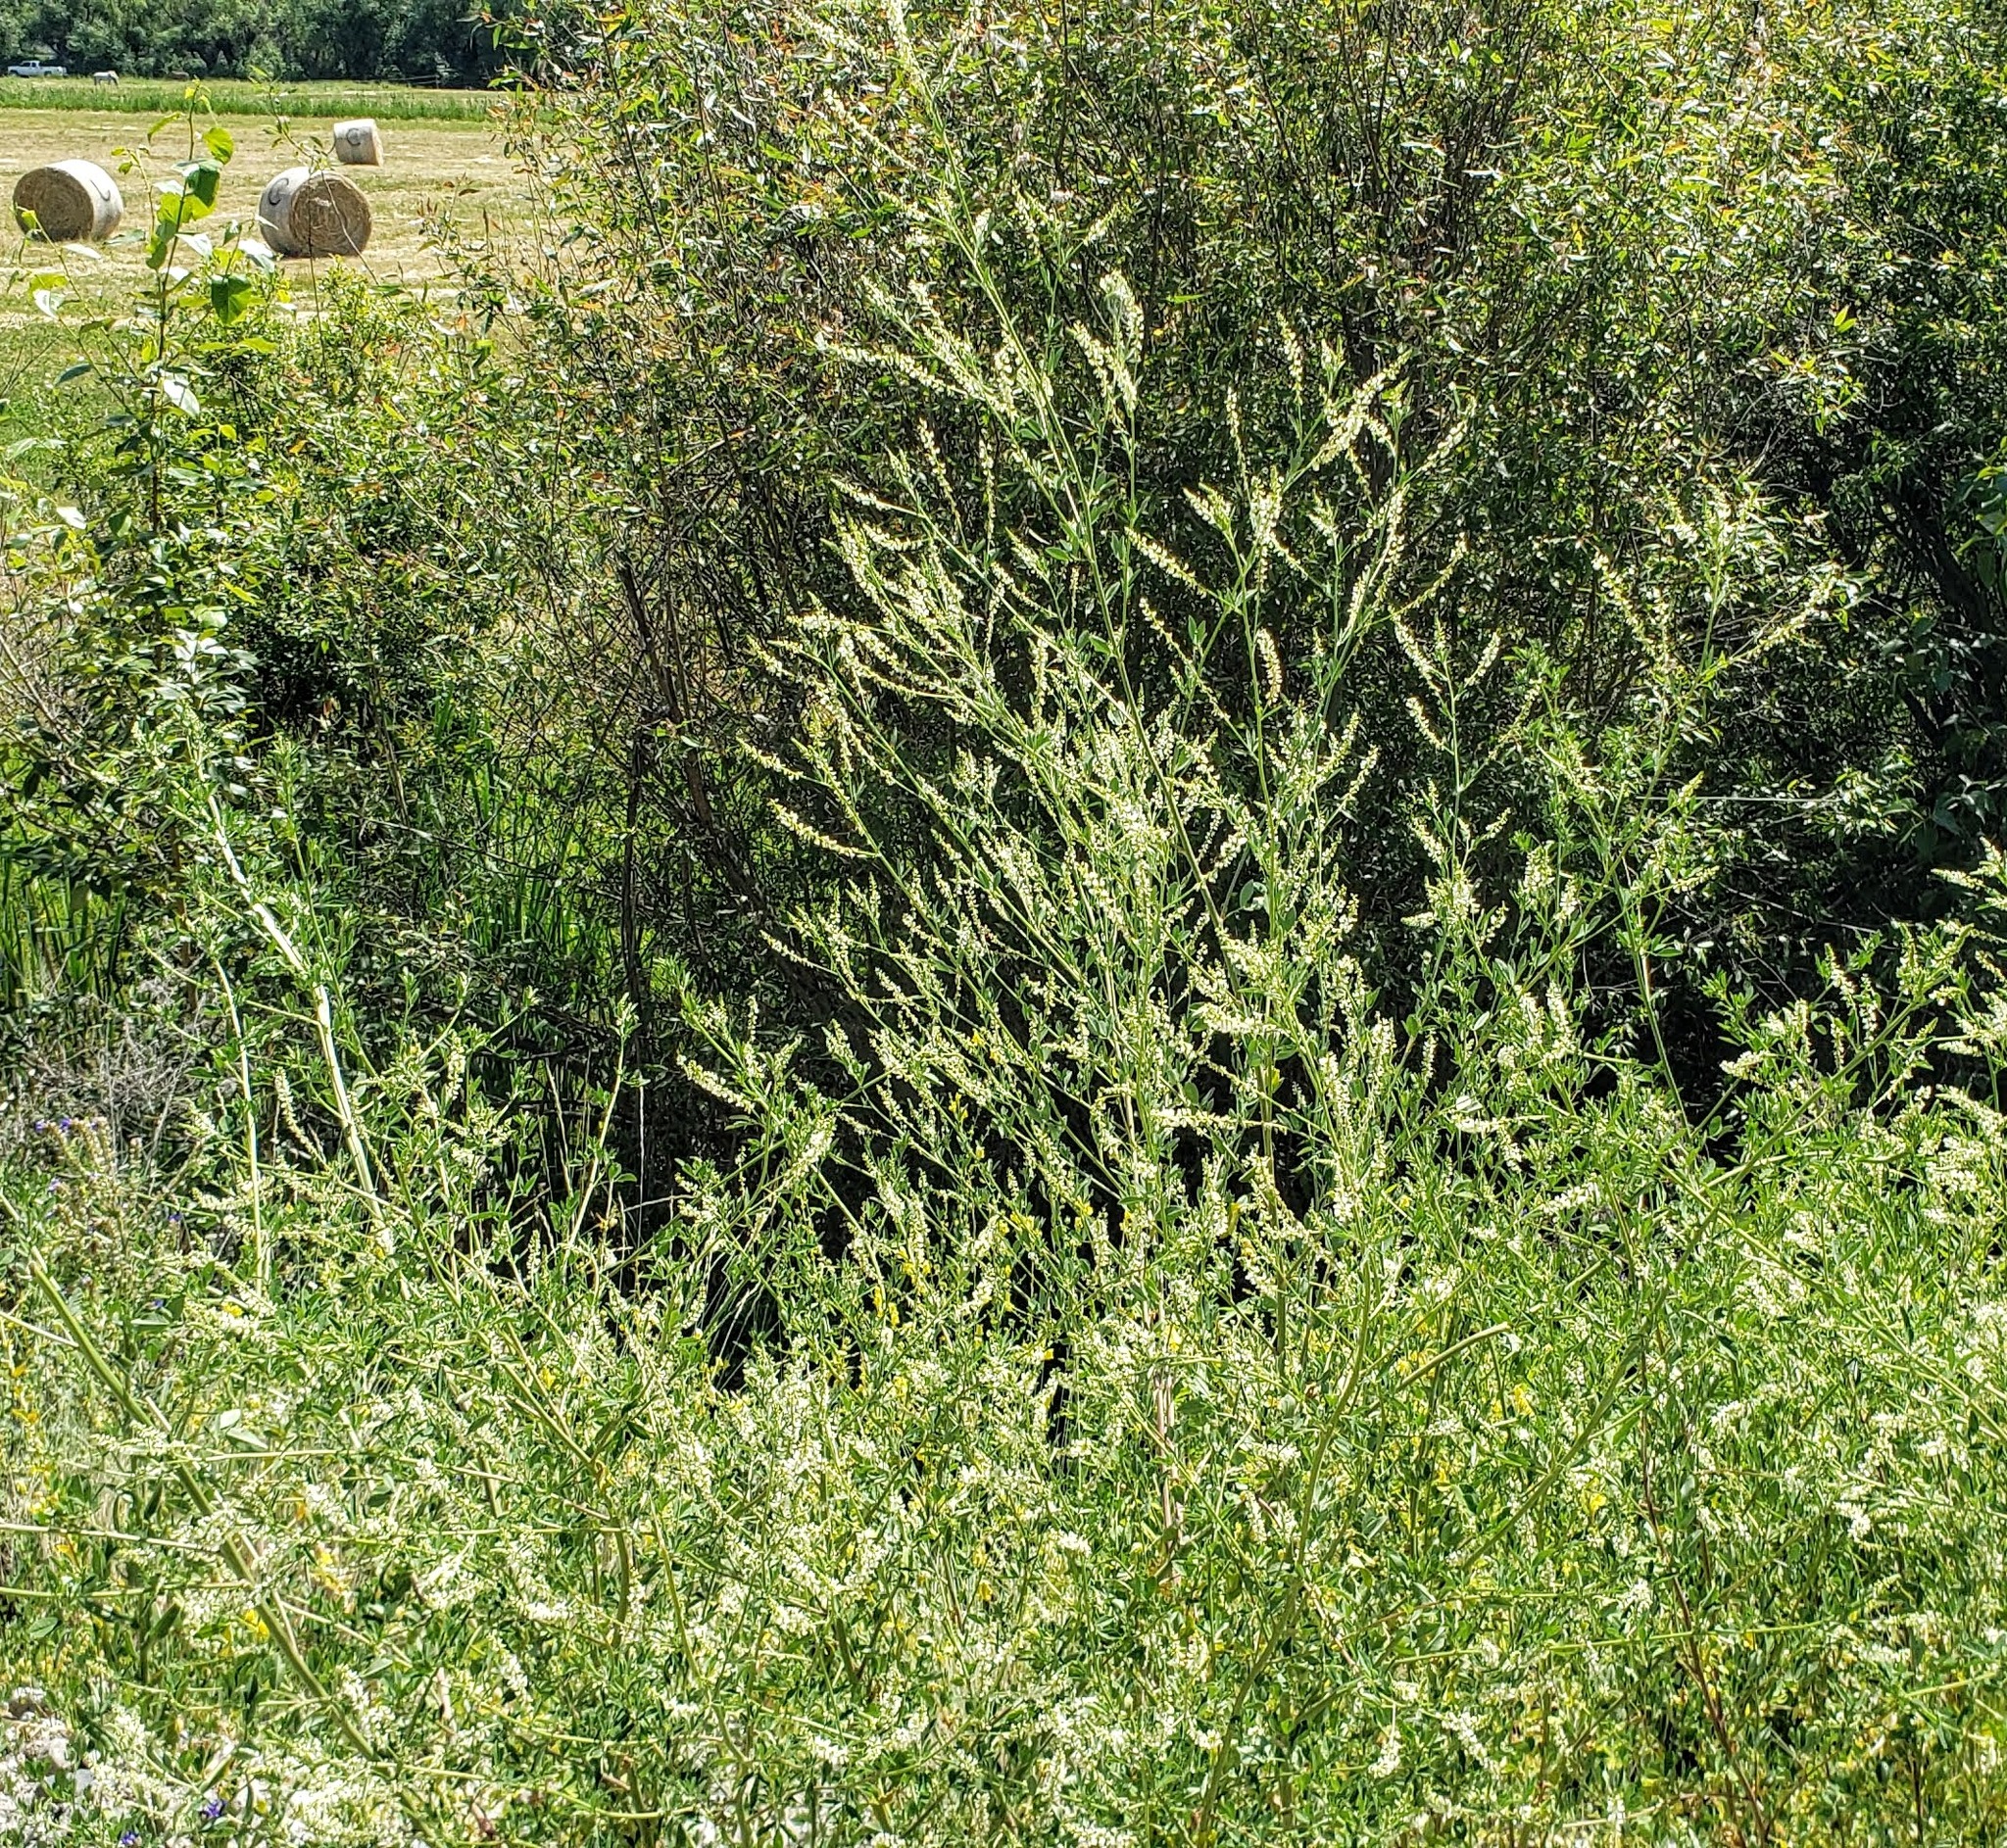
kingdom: Plantae
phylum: Tracheophyta
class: Magnoliopsida
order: Fabales
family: Fabaceae
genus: Melilotus
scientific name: Melilotus albus
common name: White melilot
